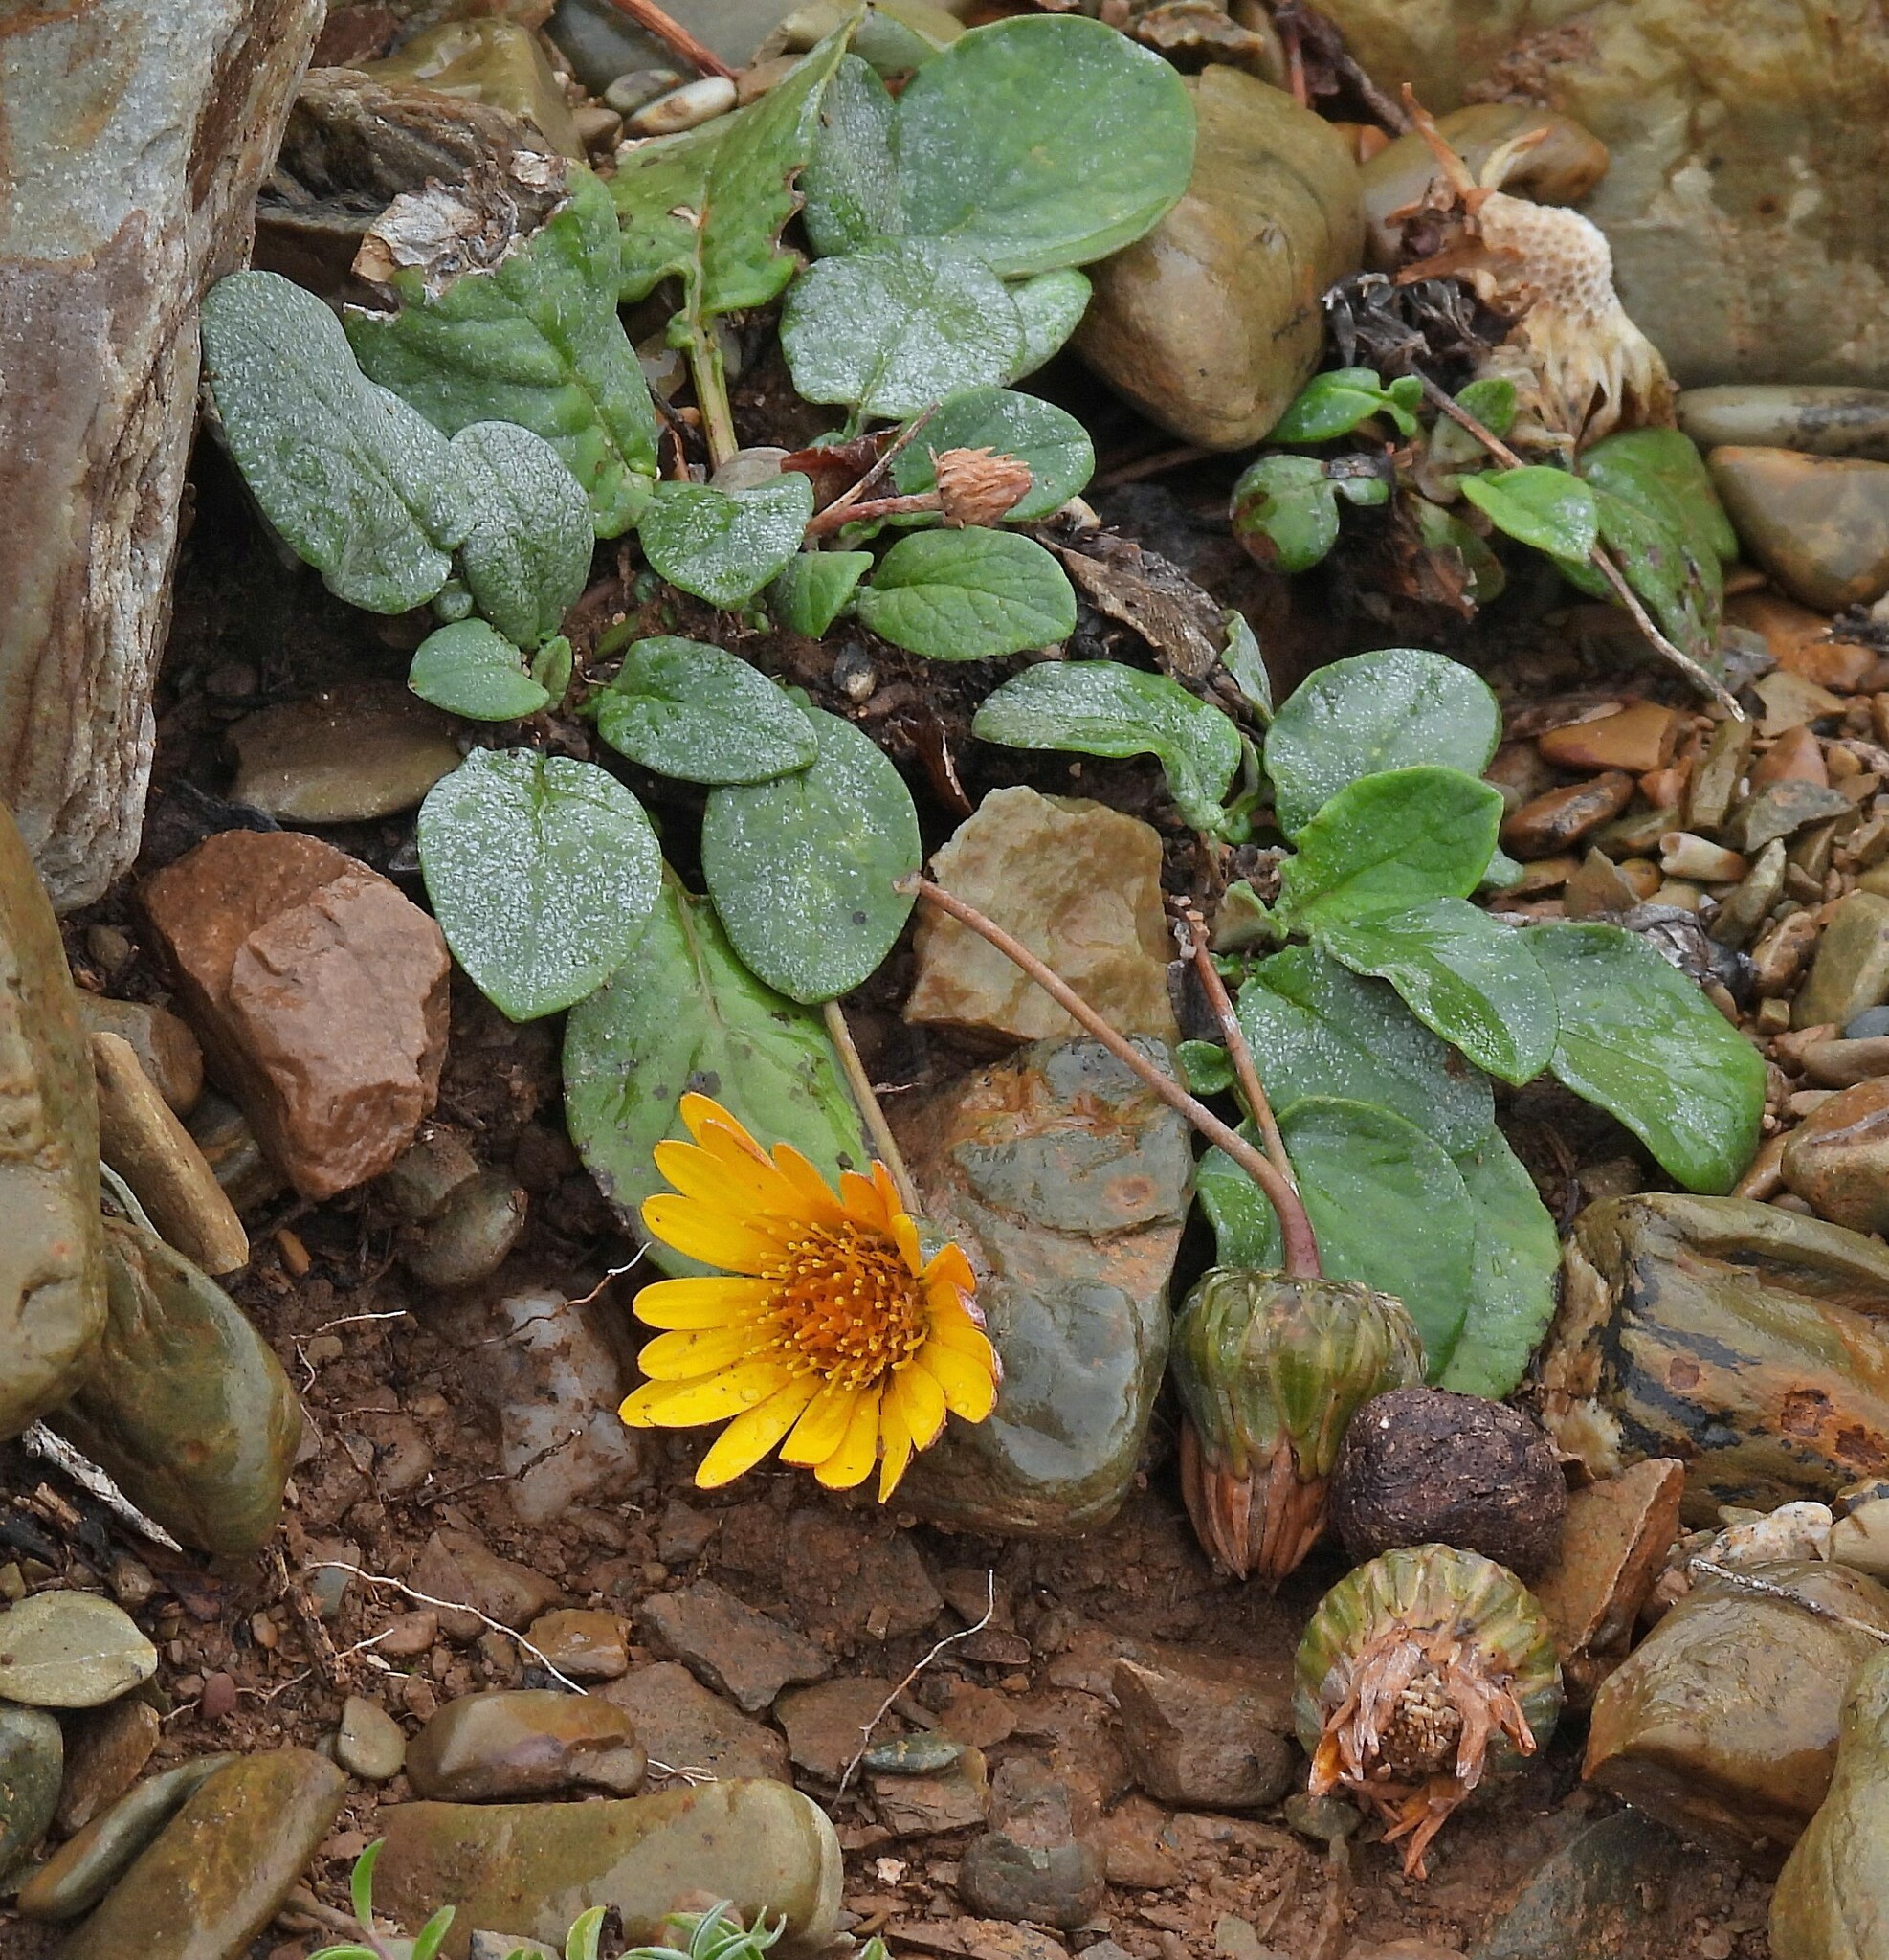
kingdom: Plantae
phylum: Tracheophyta
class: Magnoliopsida
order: Asterales
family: Asteraceae
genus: Trichocline
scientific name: Trichocline auriculata
